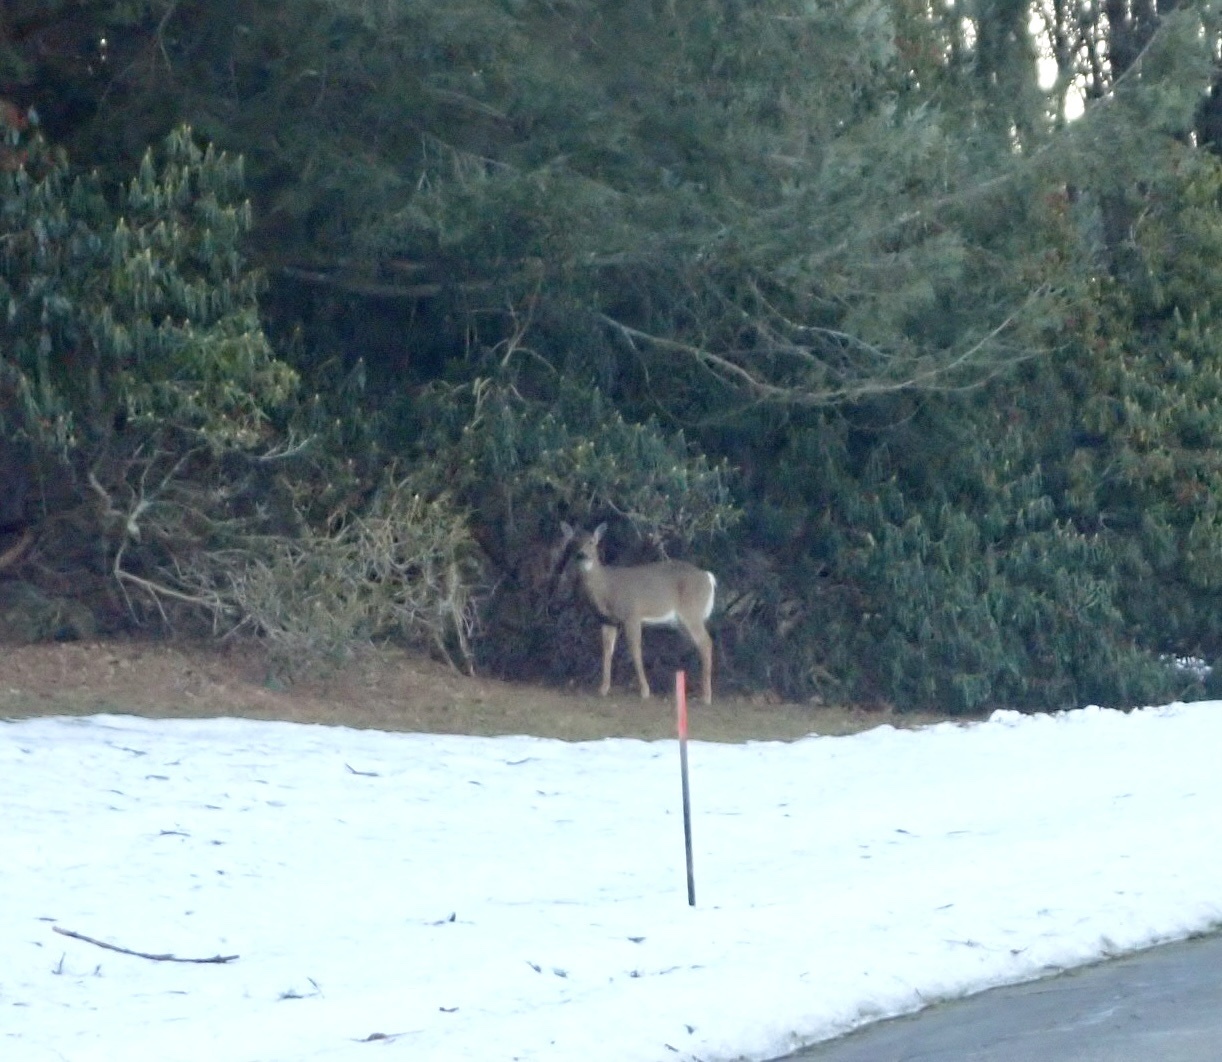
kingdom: Animalia
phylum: Chordata
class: Mammalia
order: Artiodactyla
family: Cervidae
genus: Odocoileus
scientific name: Odocoileus virginianus
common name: White-tailed deer
